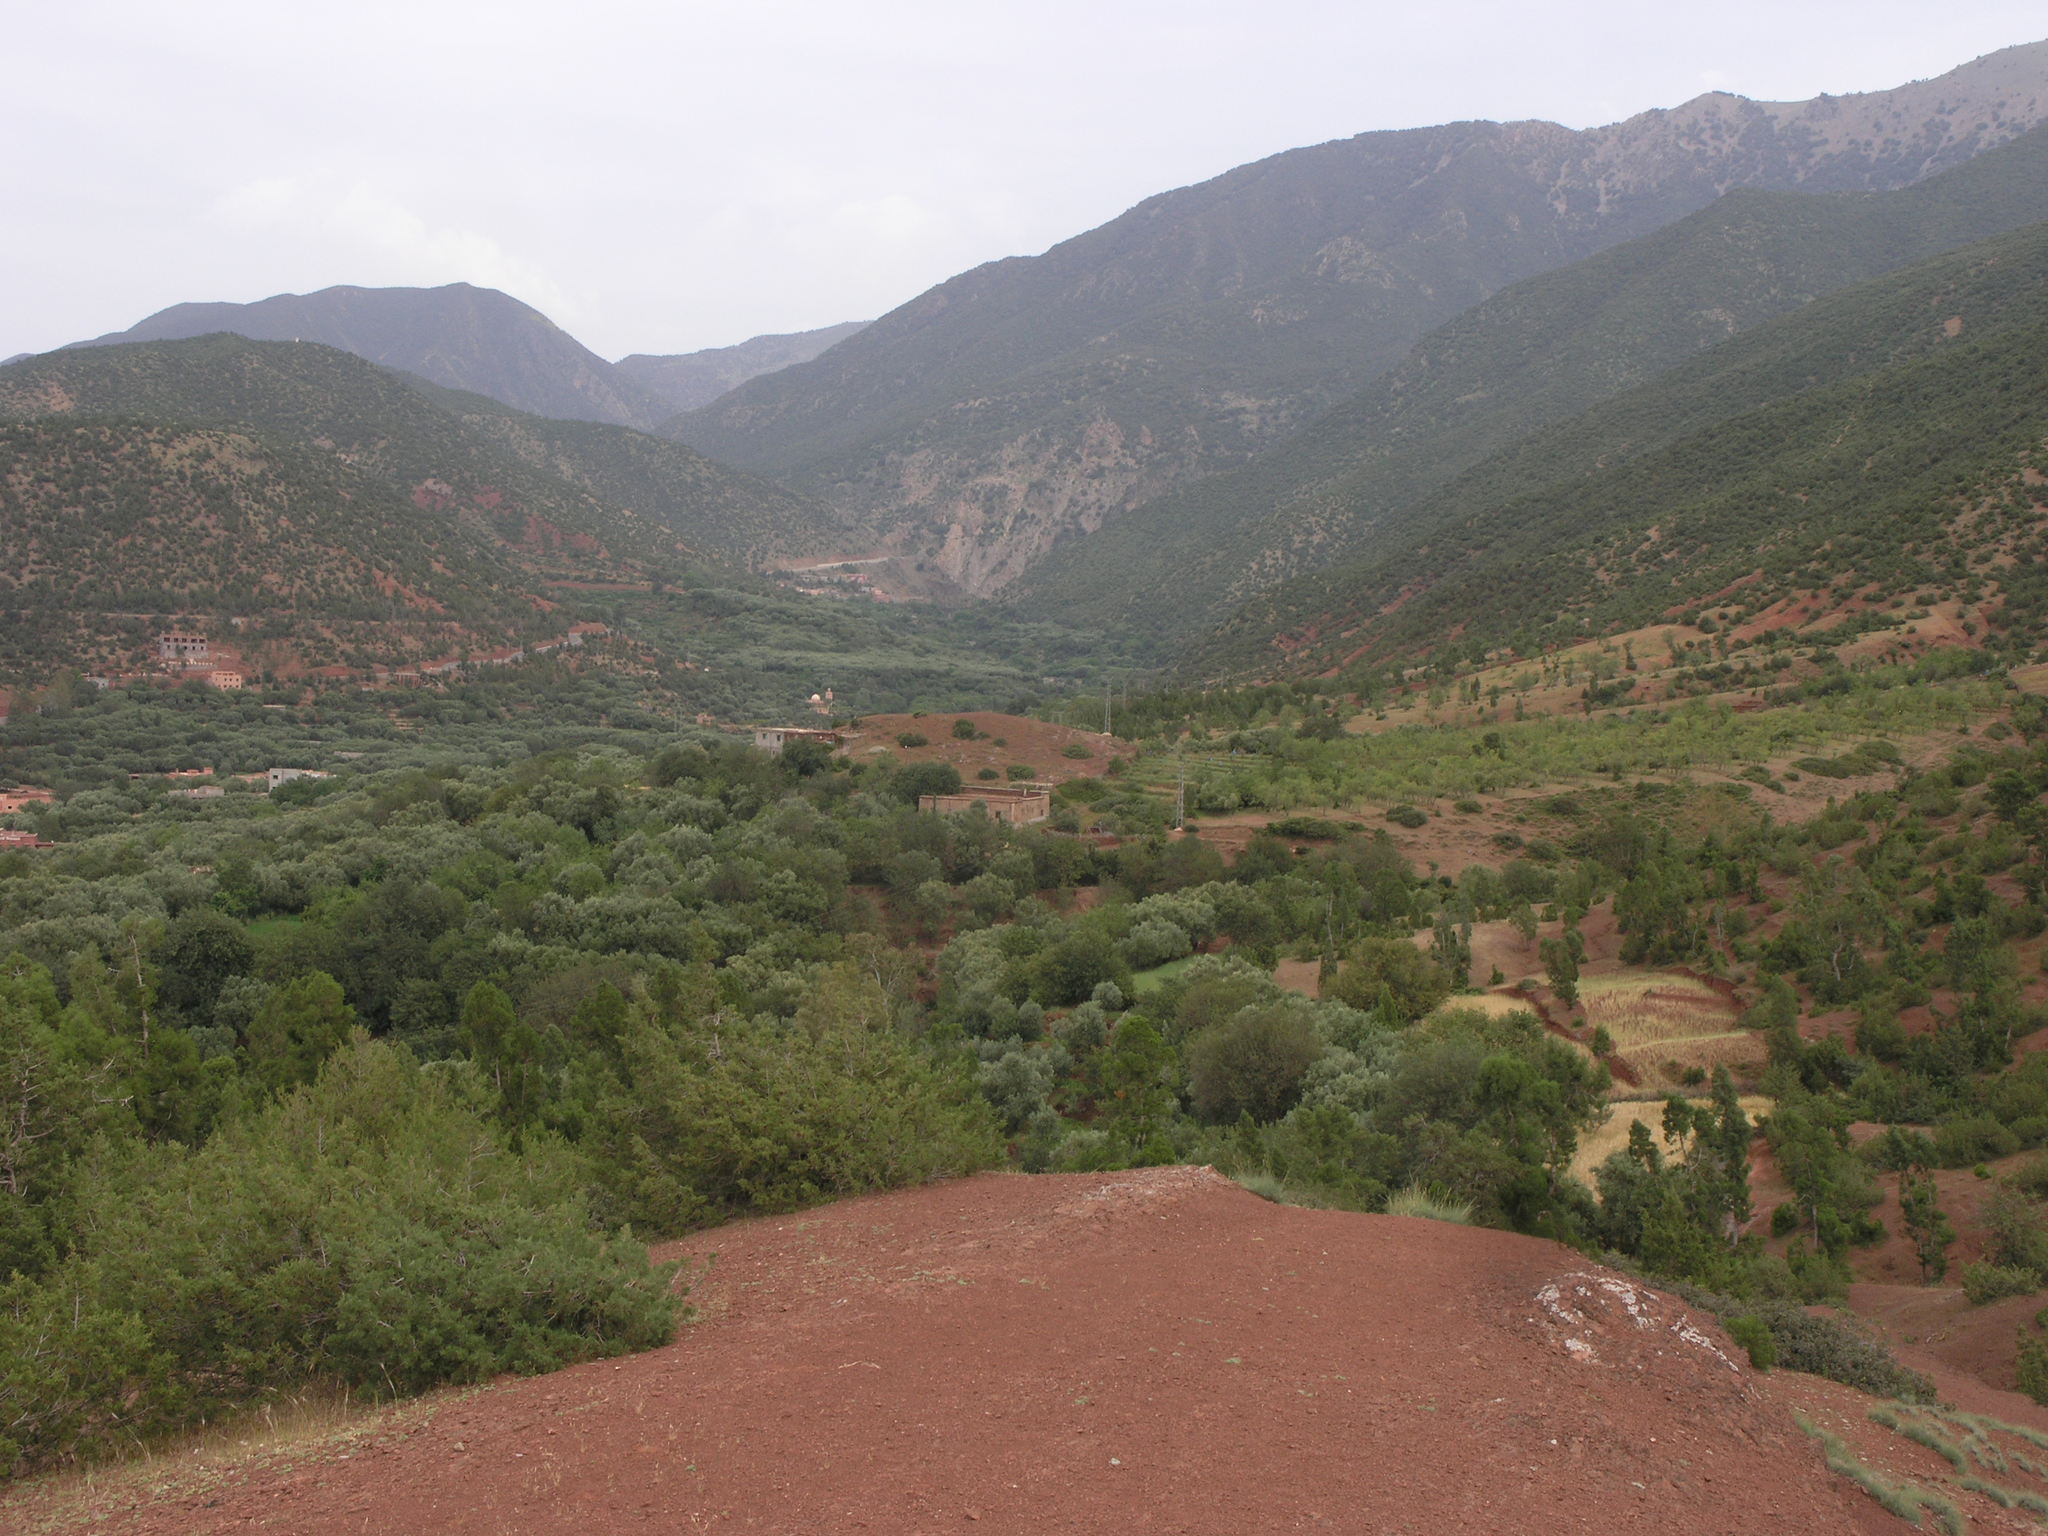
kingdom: Plantae
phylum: Tracheophyta
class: Pinopsida
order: Pinales
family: Cupressaceae
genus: Juniperus
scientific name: Juniperus thurifera
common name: Incense juniper
